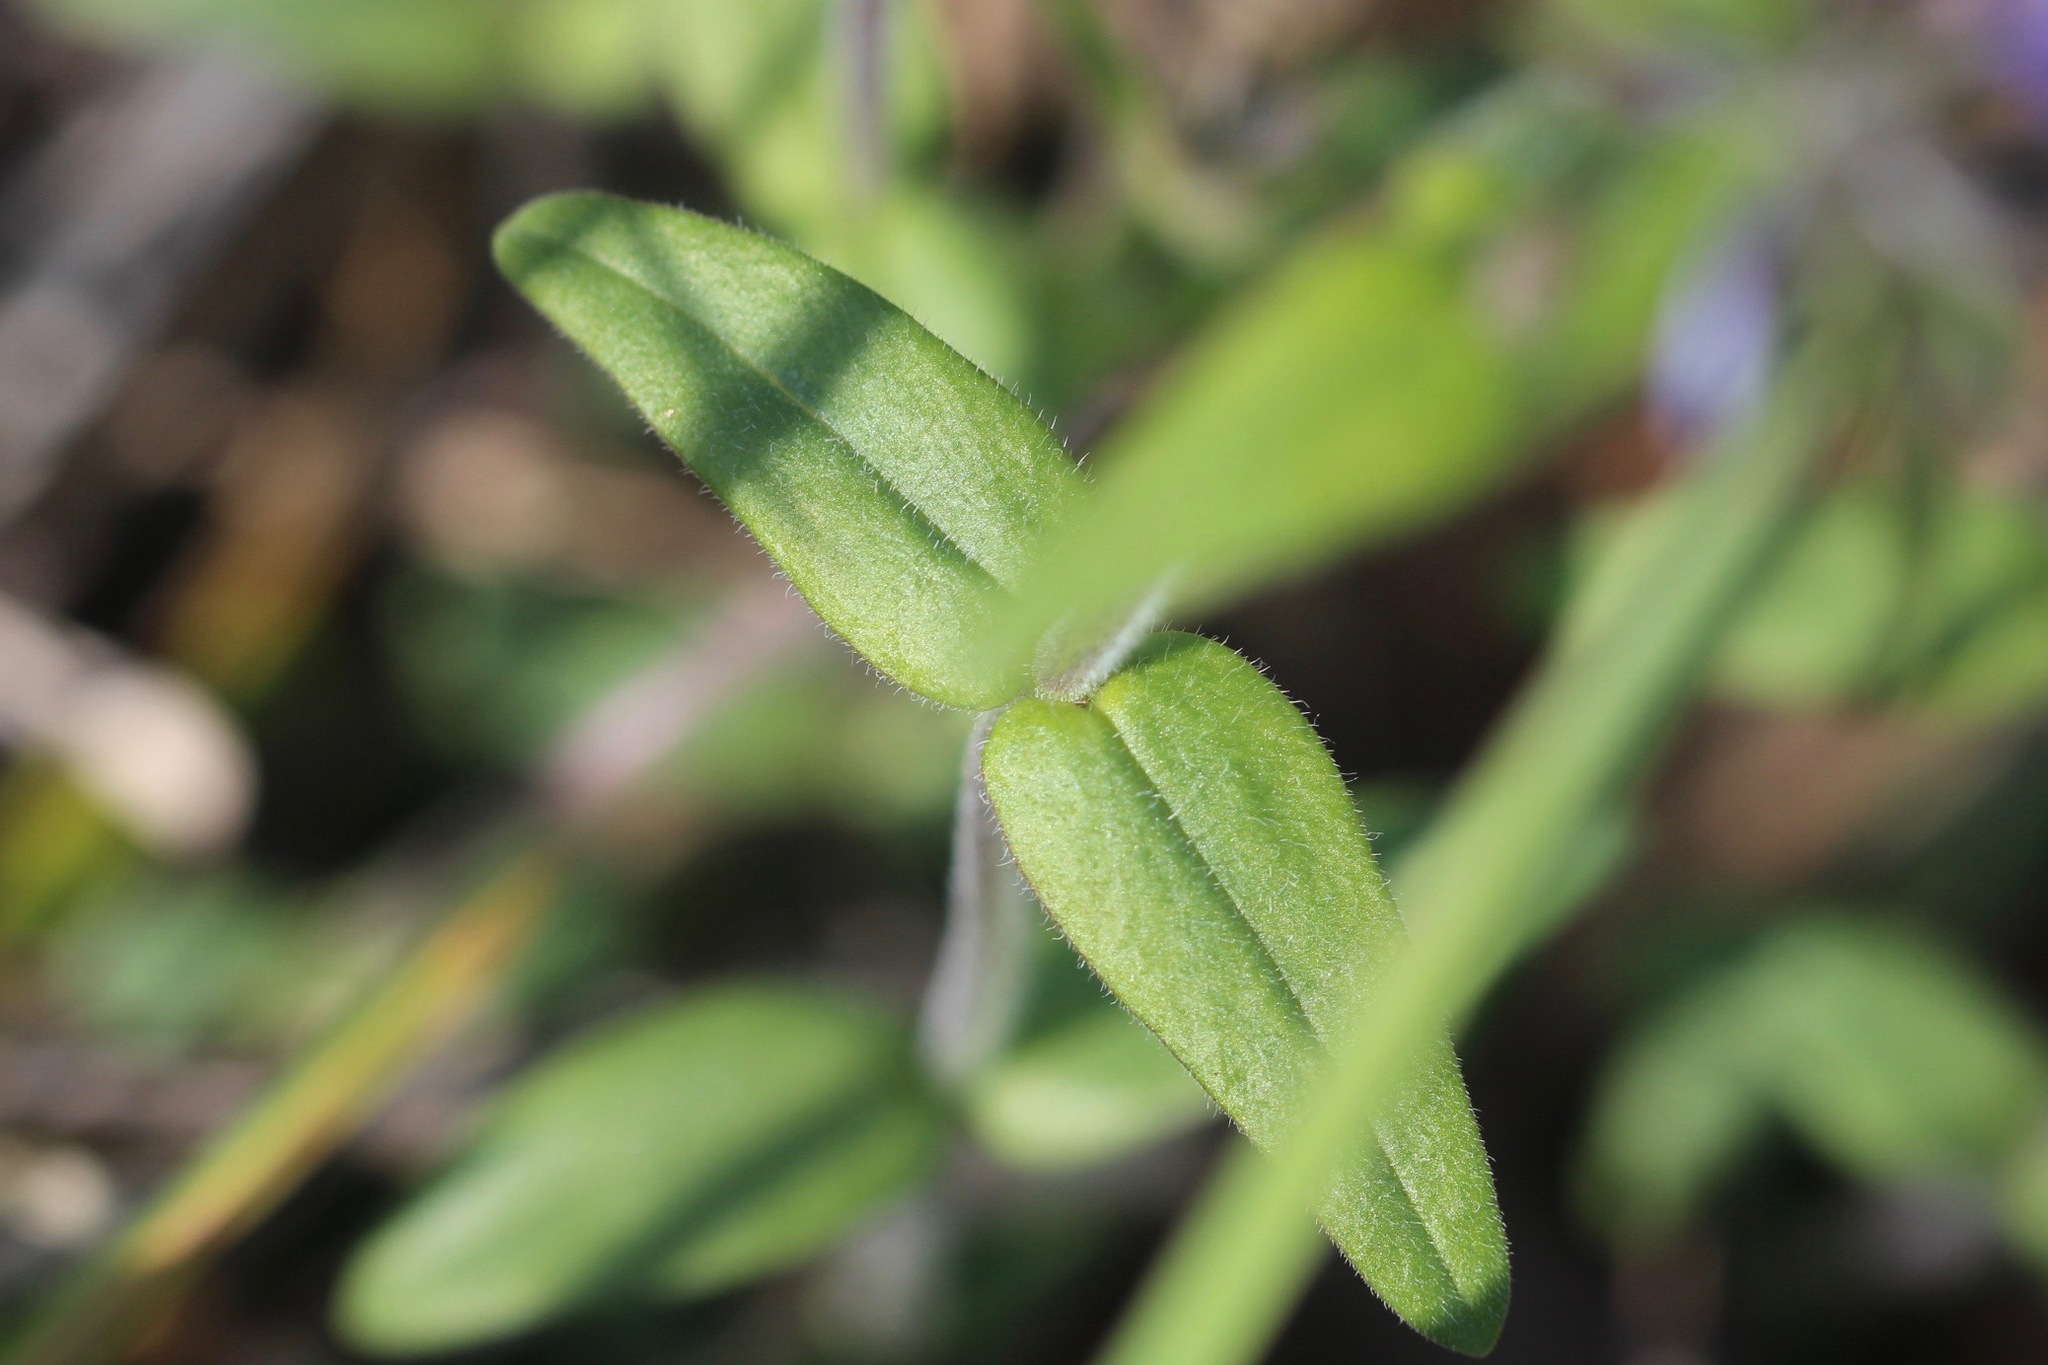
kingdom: Plantae
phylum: Tracheophyta
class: Magnoliopsida
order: Ericales
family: Polemoniaceae
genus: Phlox
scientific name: Phlox divaricata
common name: Blue phlox
